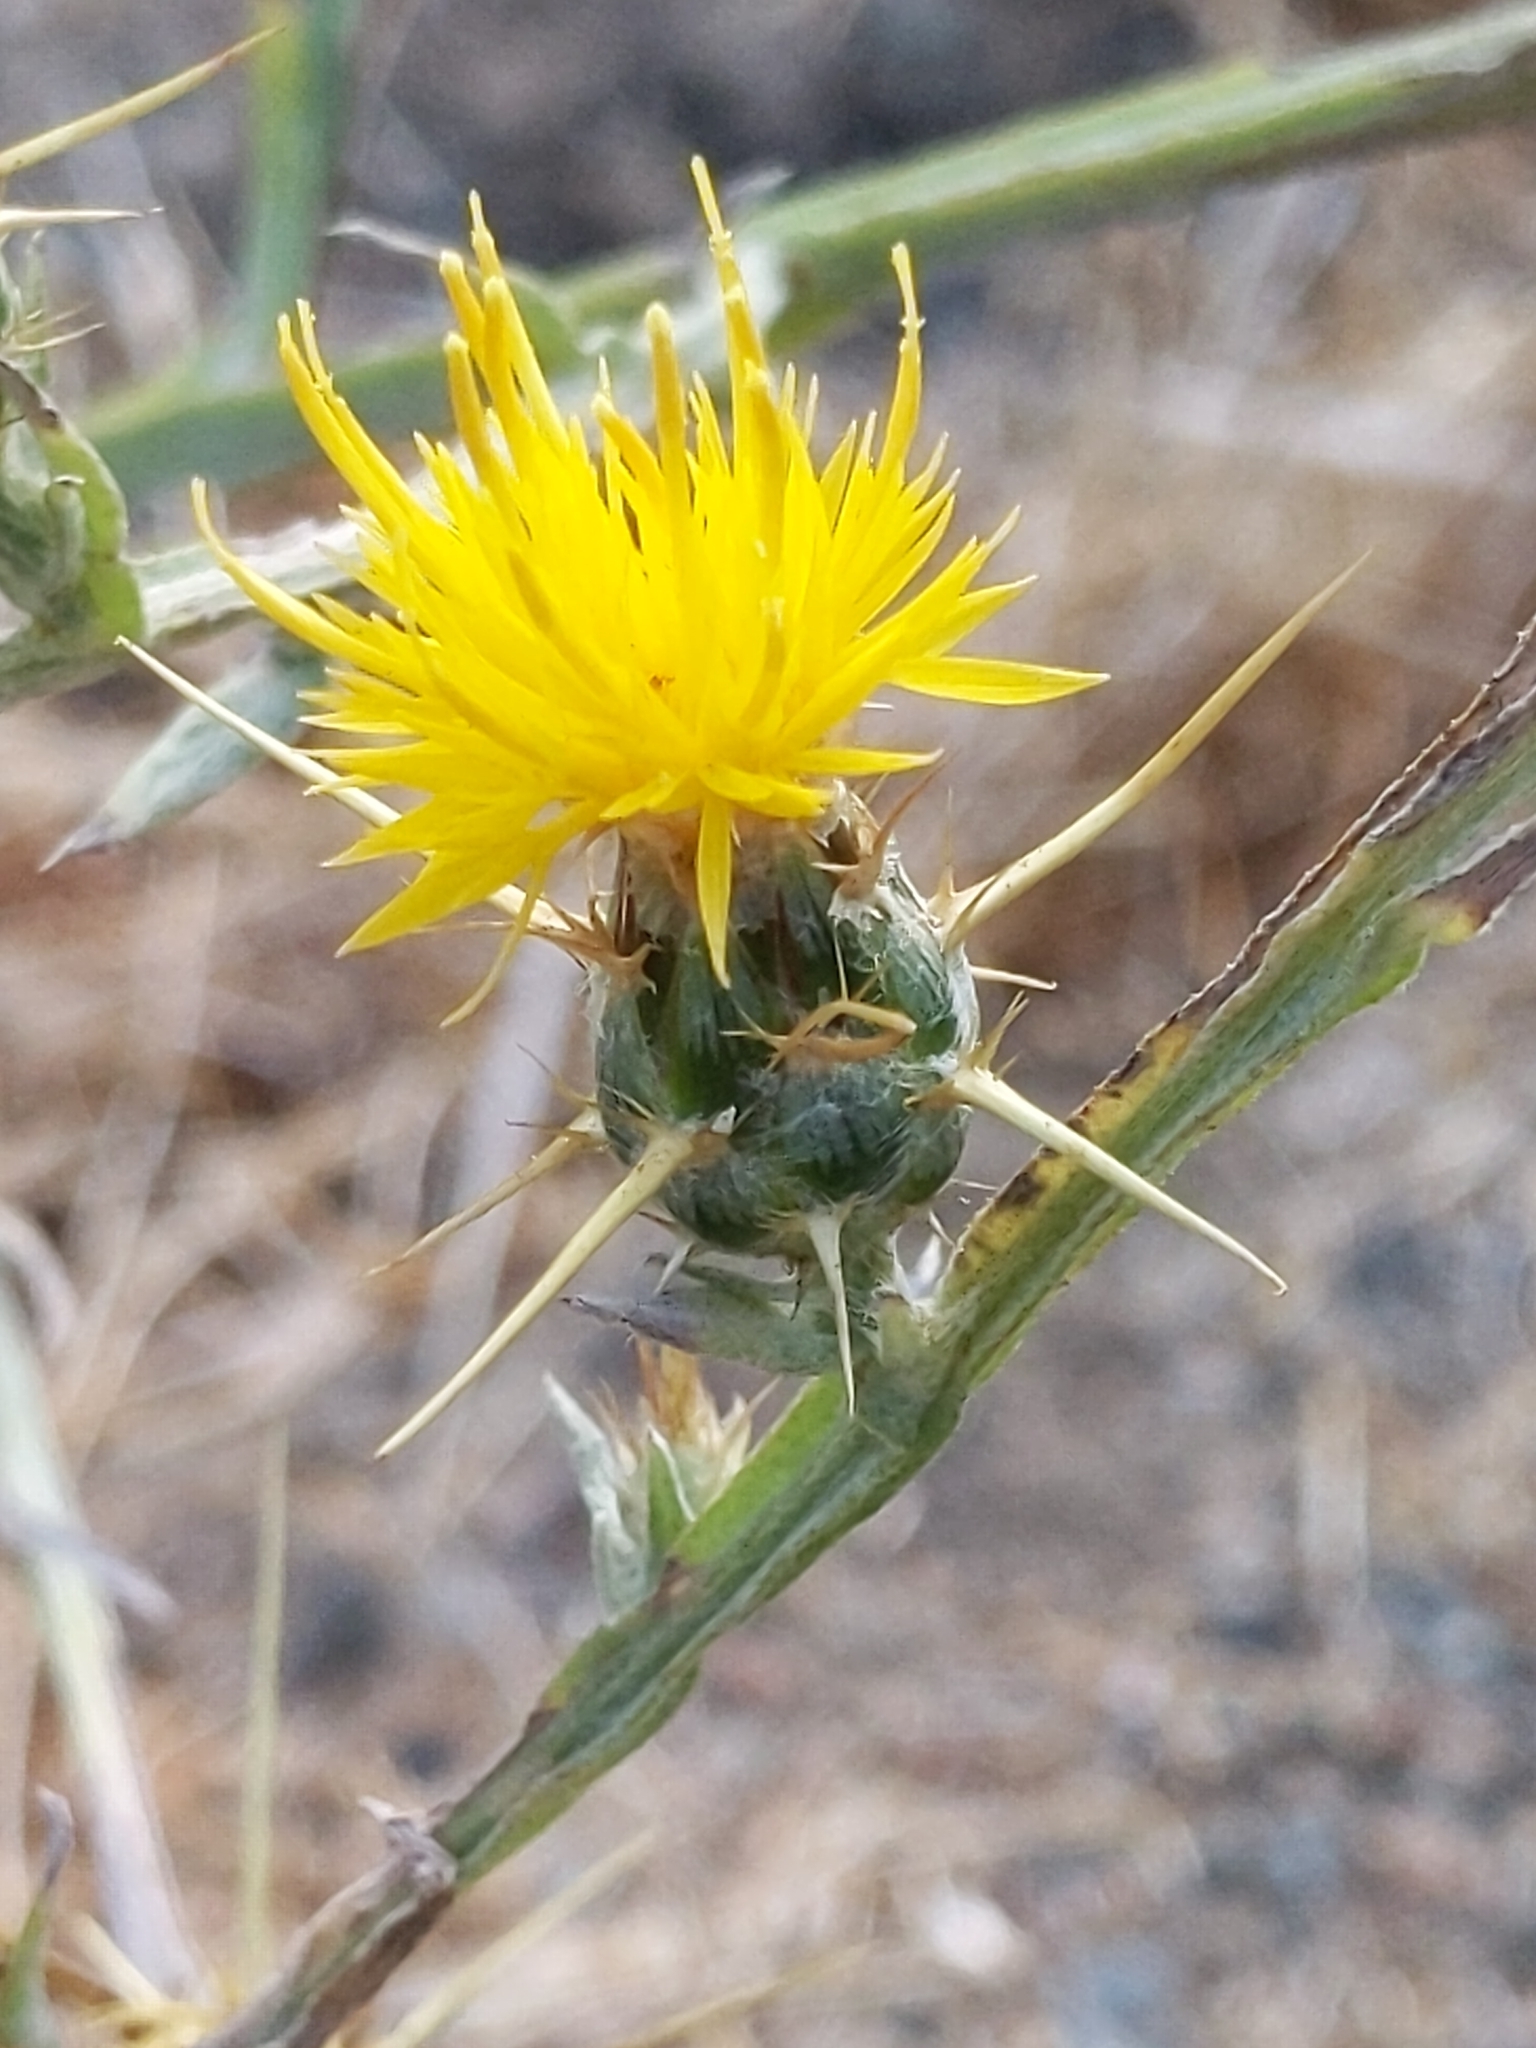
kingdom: Plantae
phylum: Tracheophyta
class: Magnoliopsida
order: Asterales
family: Asteraceae
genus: Centaurea
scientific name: Centaurea solstitialis
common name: Yellow star-thistle
